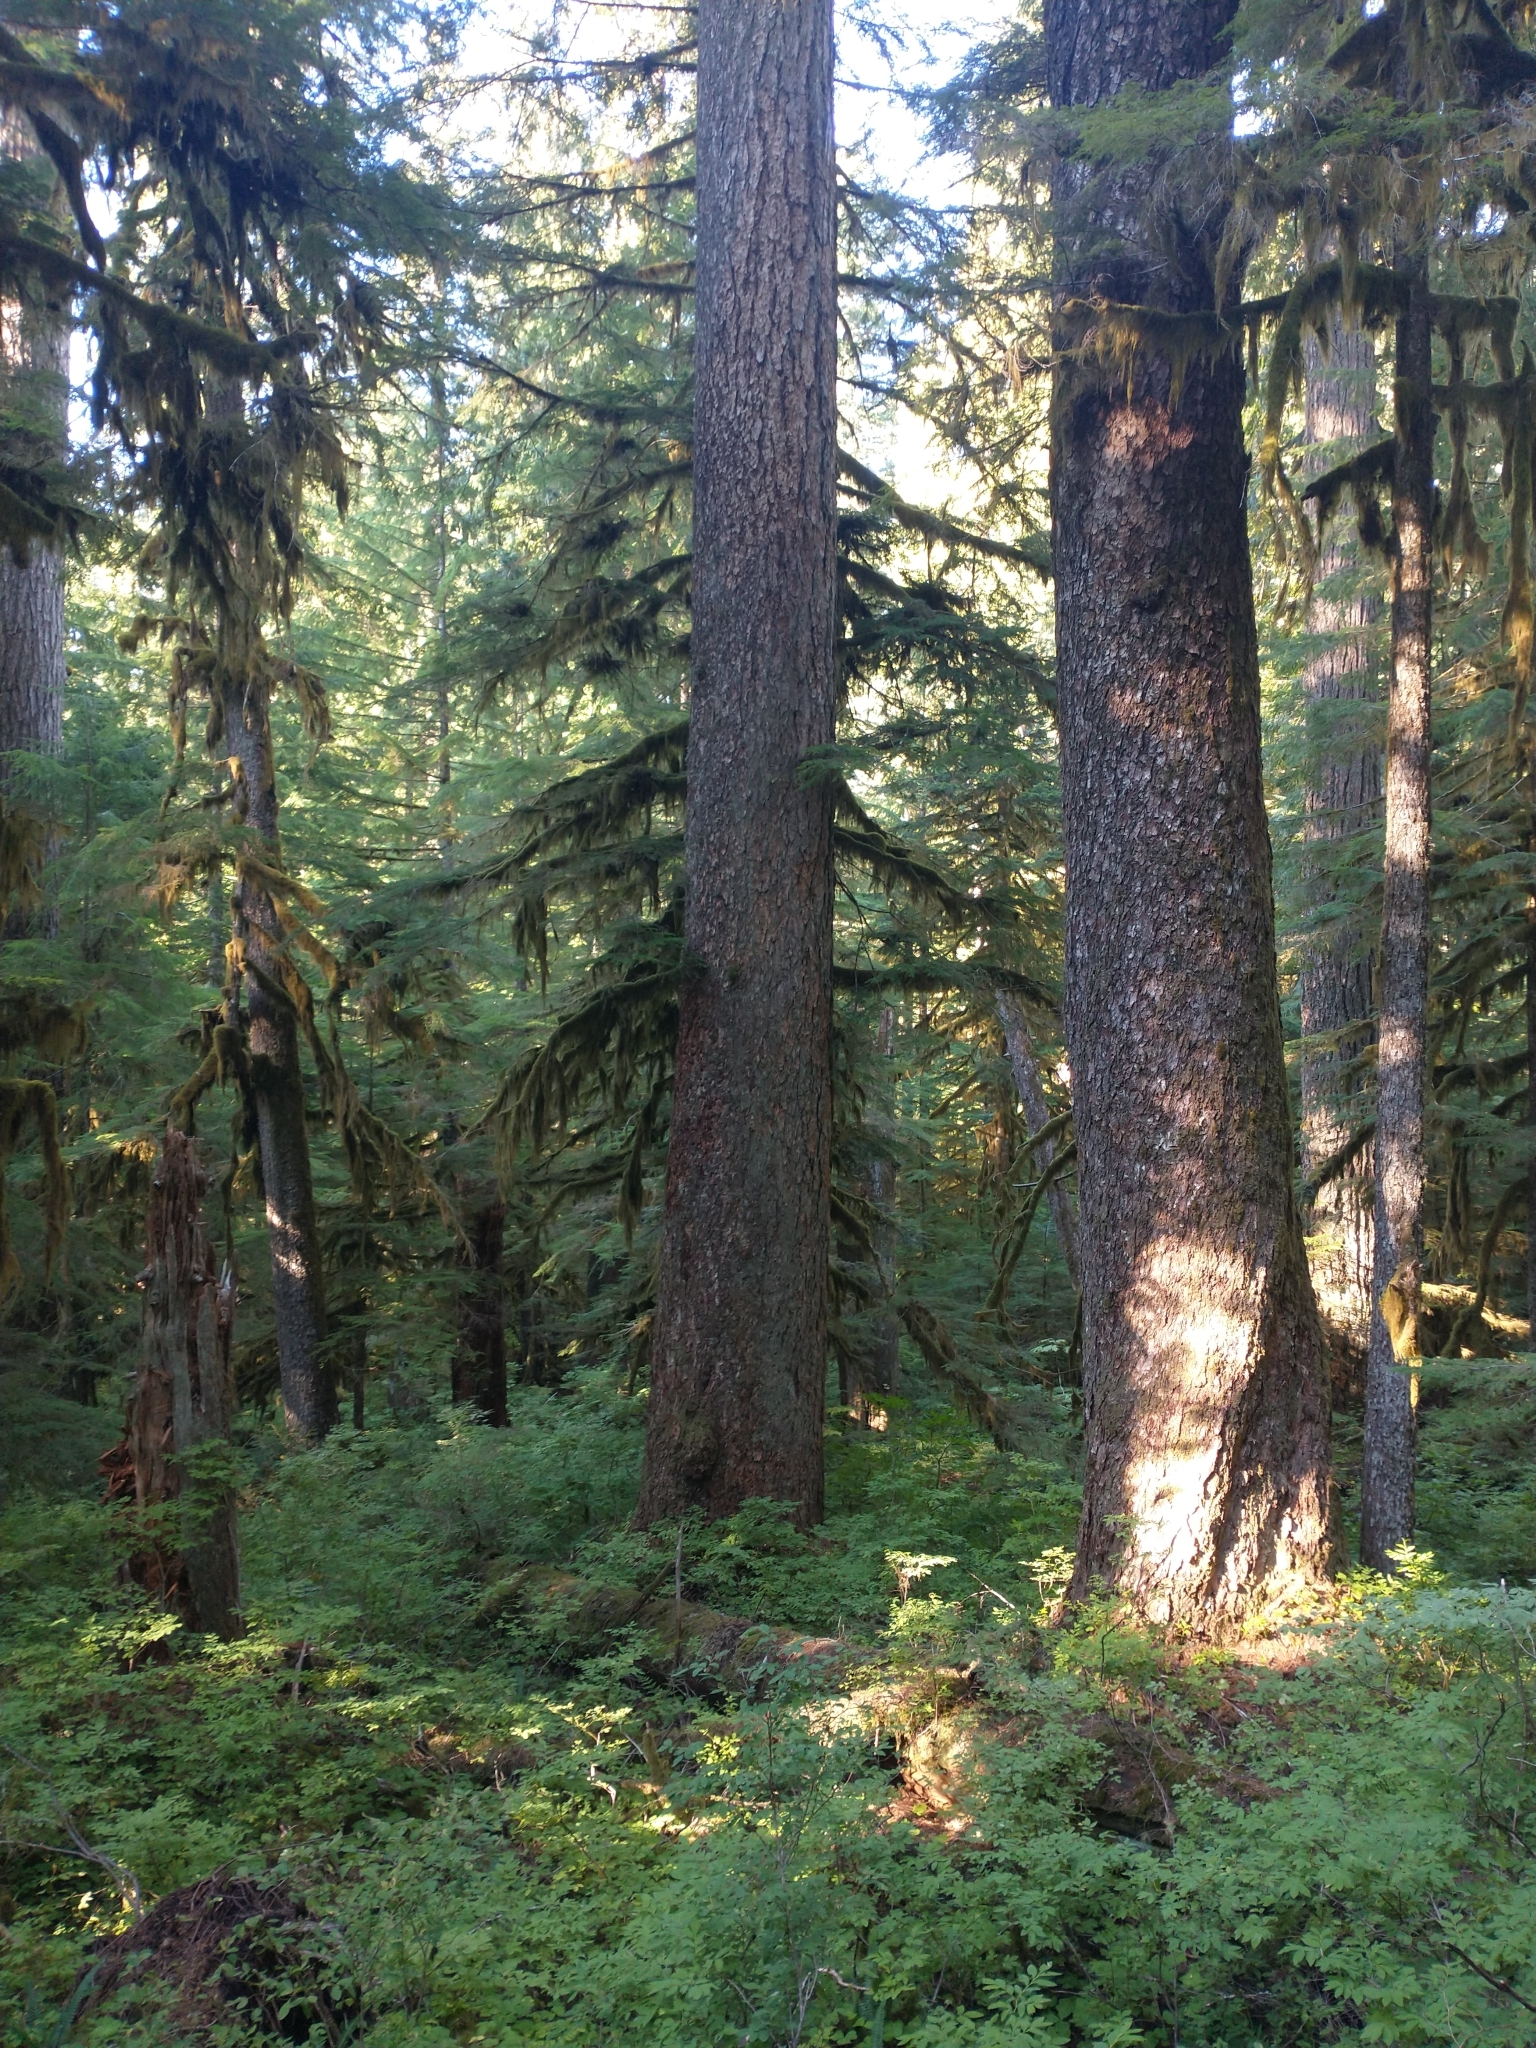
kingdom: Plantae
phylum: Tracheophyta
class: Pinopsida
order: Pinales
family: Pinaceae
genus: Pseudotsuga
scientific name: Pseudotsuga menziesii
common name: Douglas fir
